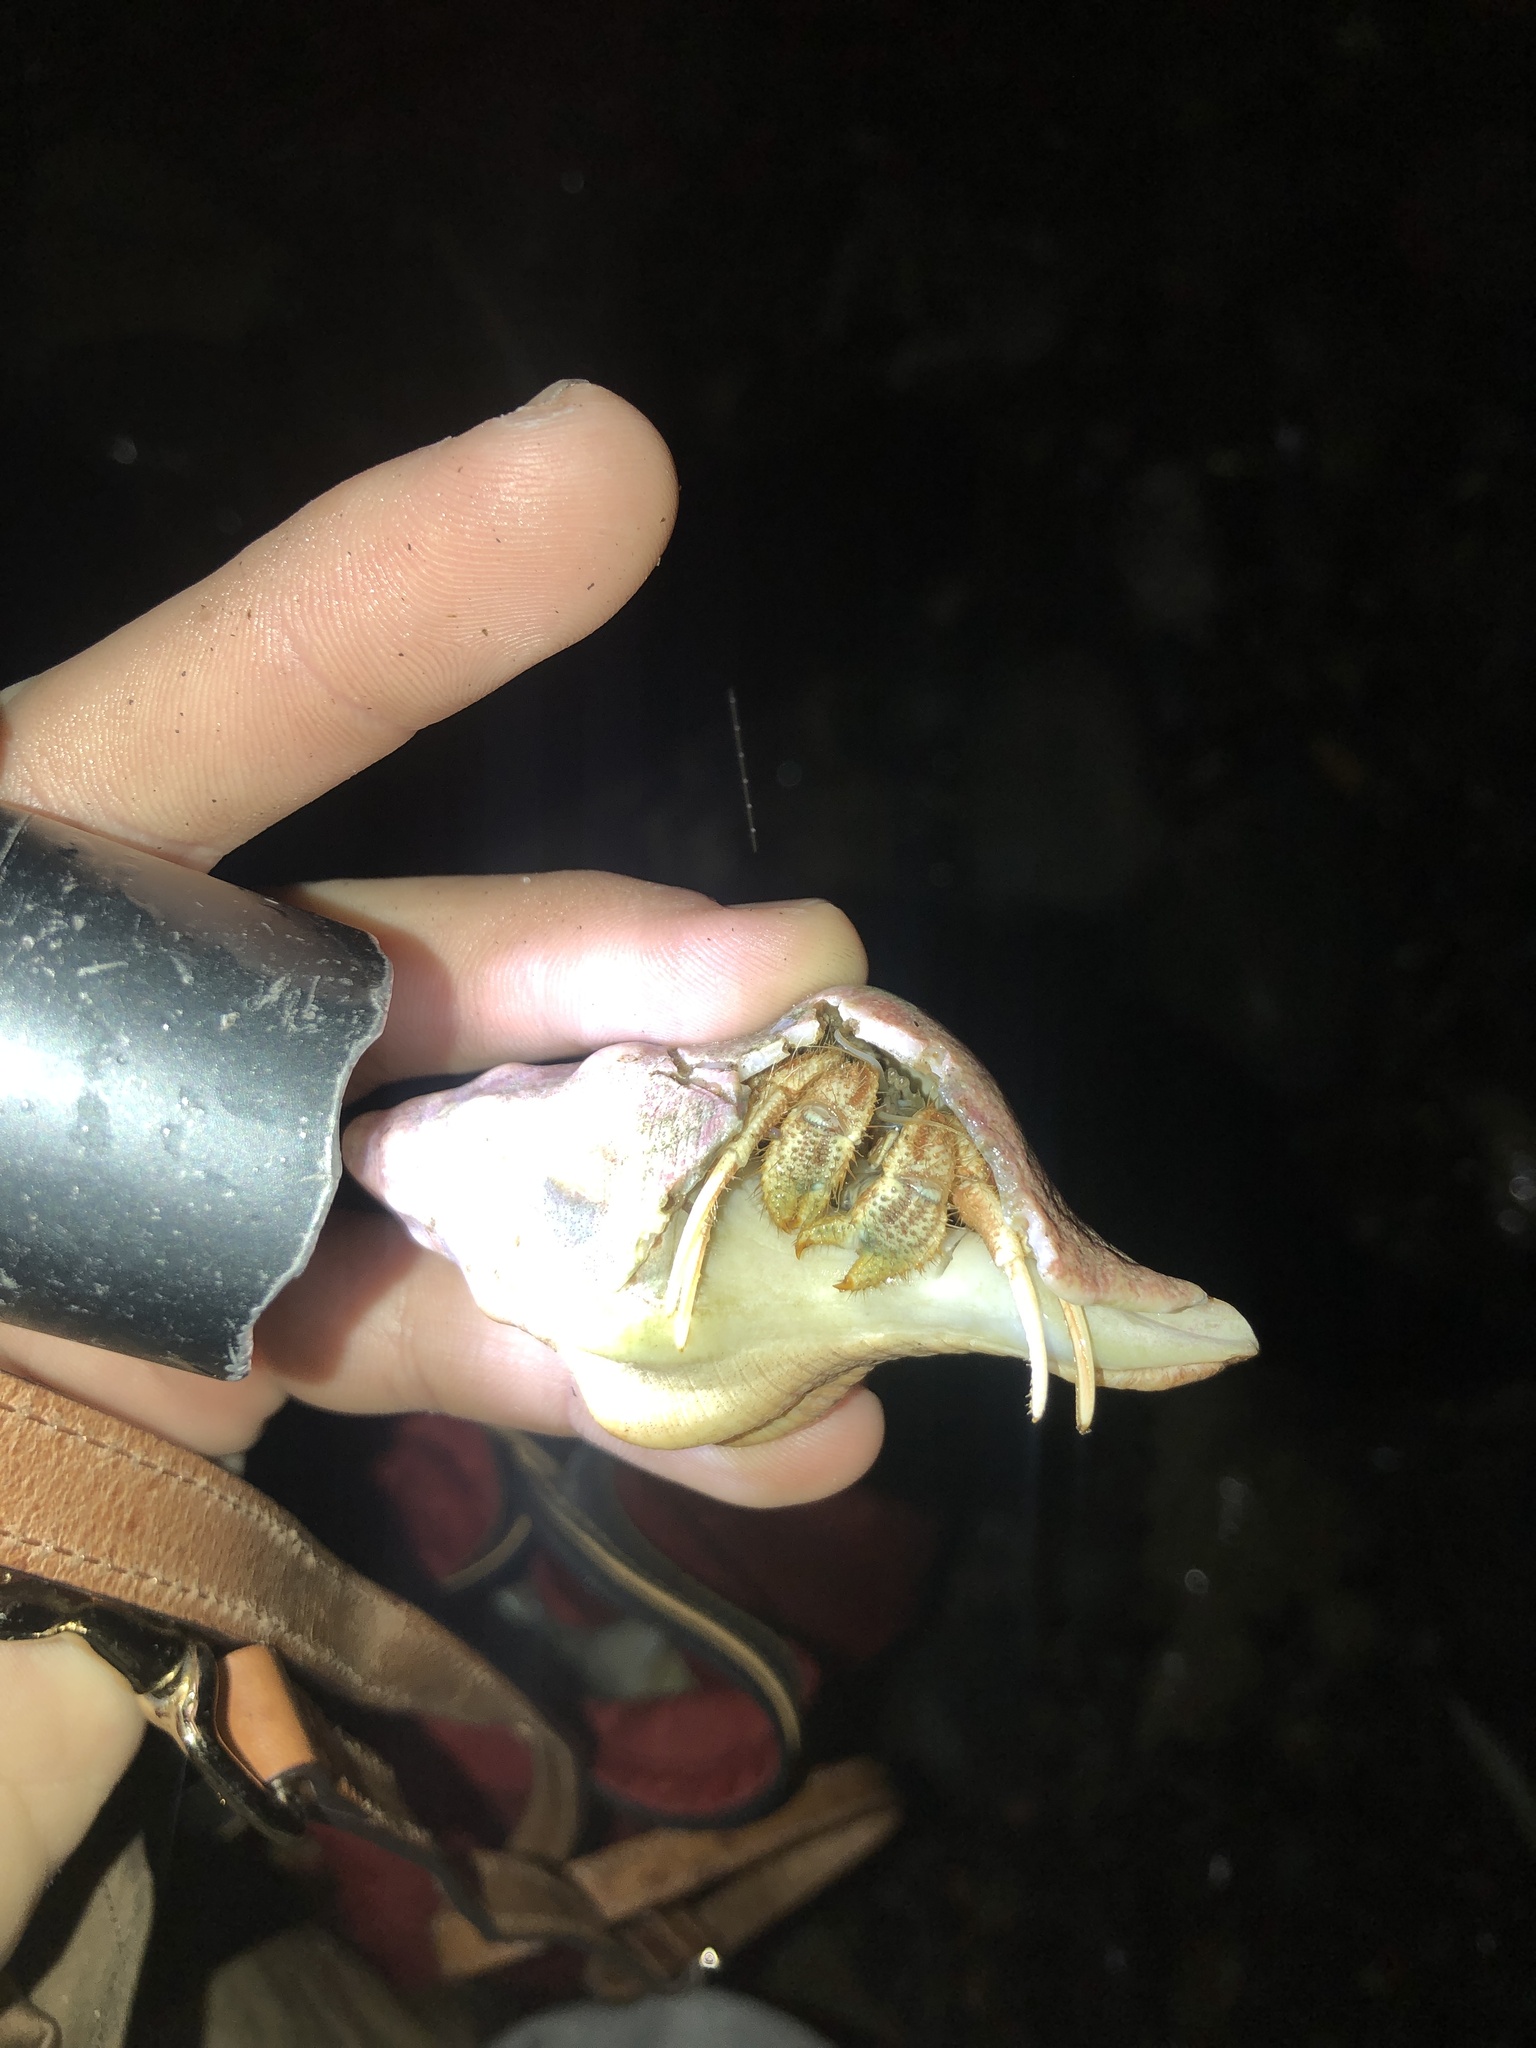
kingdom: Animalia
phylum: Arthropoda
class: Malacostraca
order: Decapoda
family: Diogenidae
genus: Isocheles
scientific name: Isocheles pilosus
